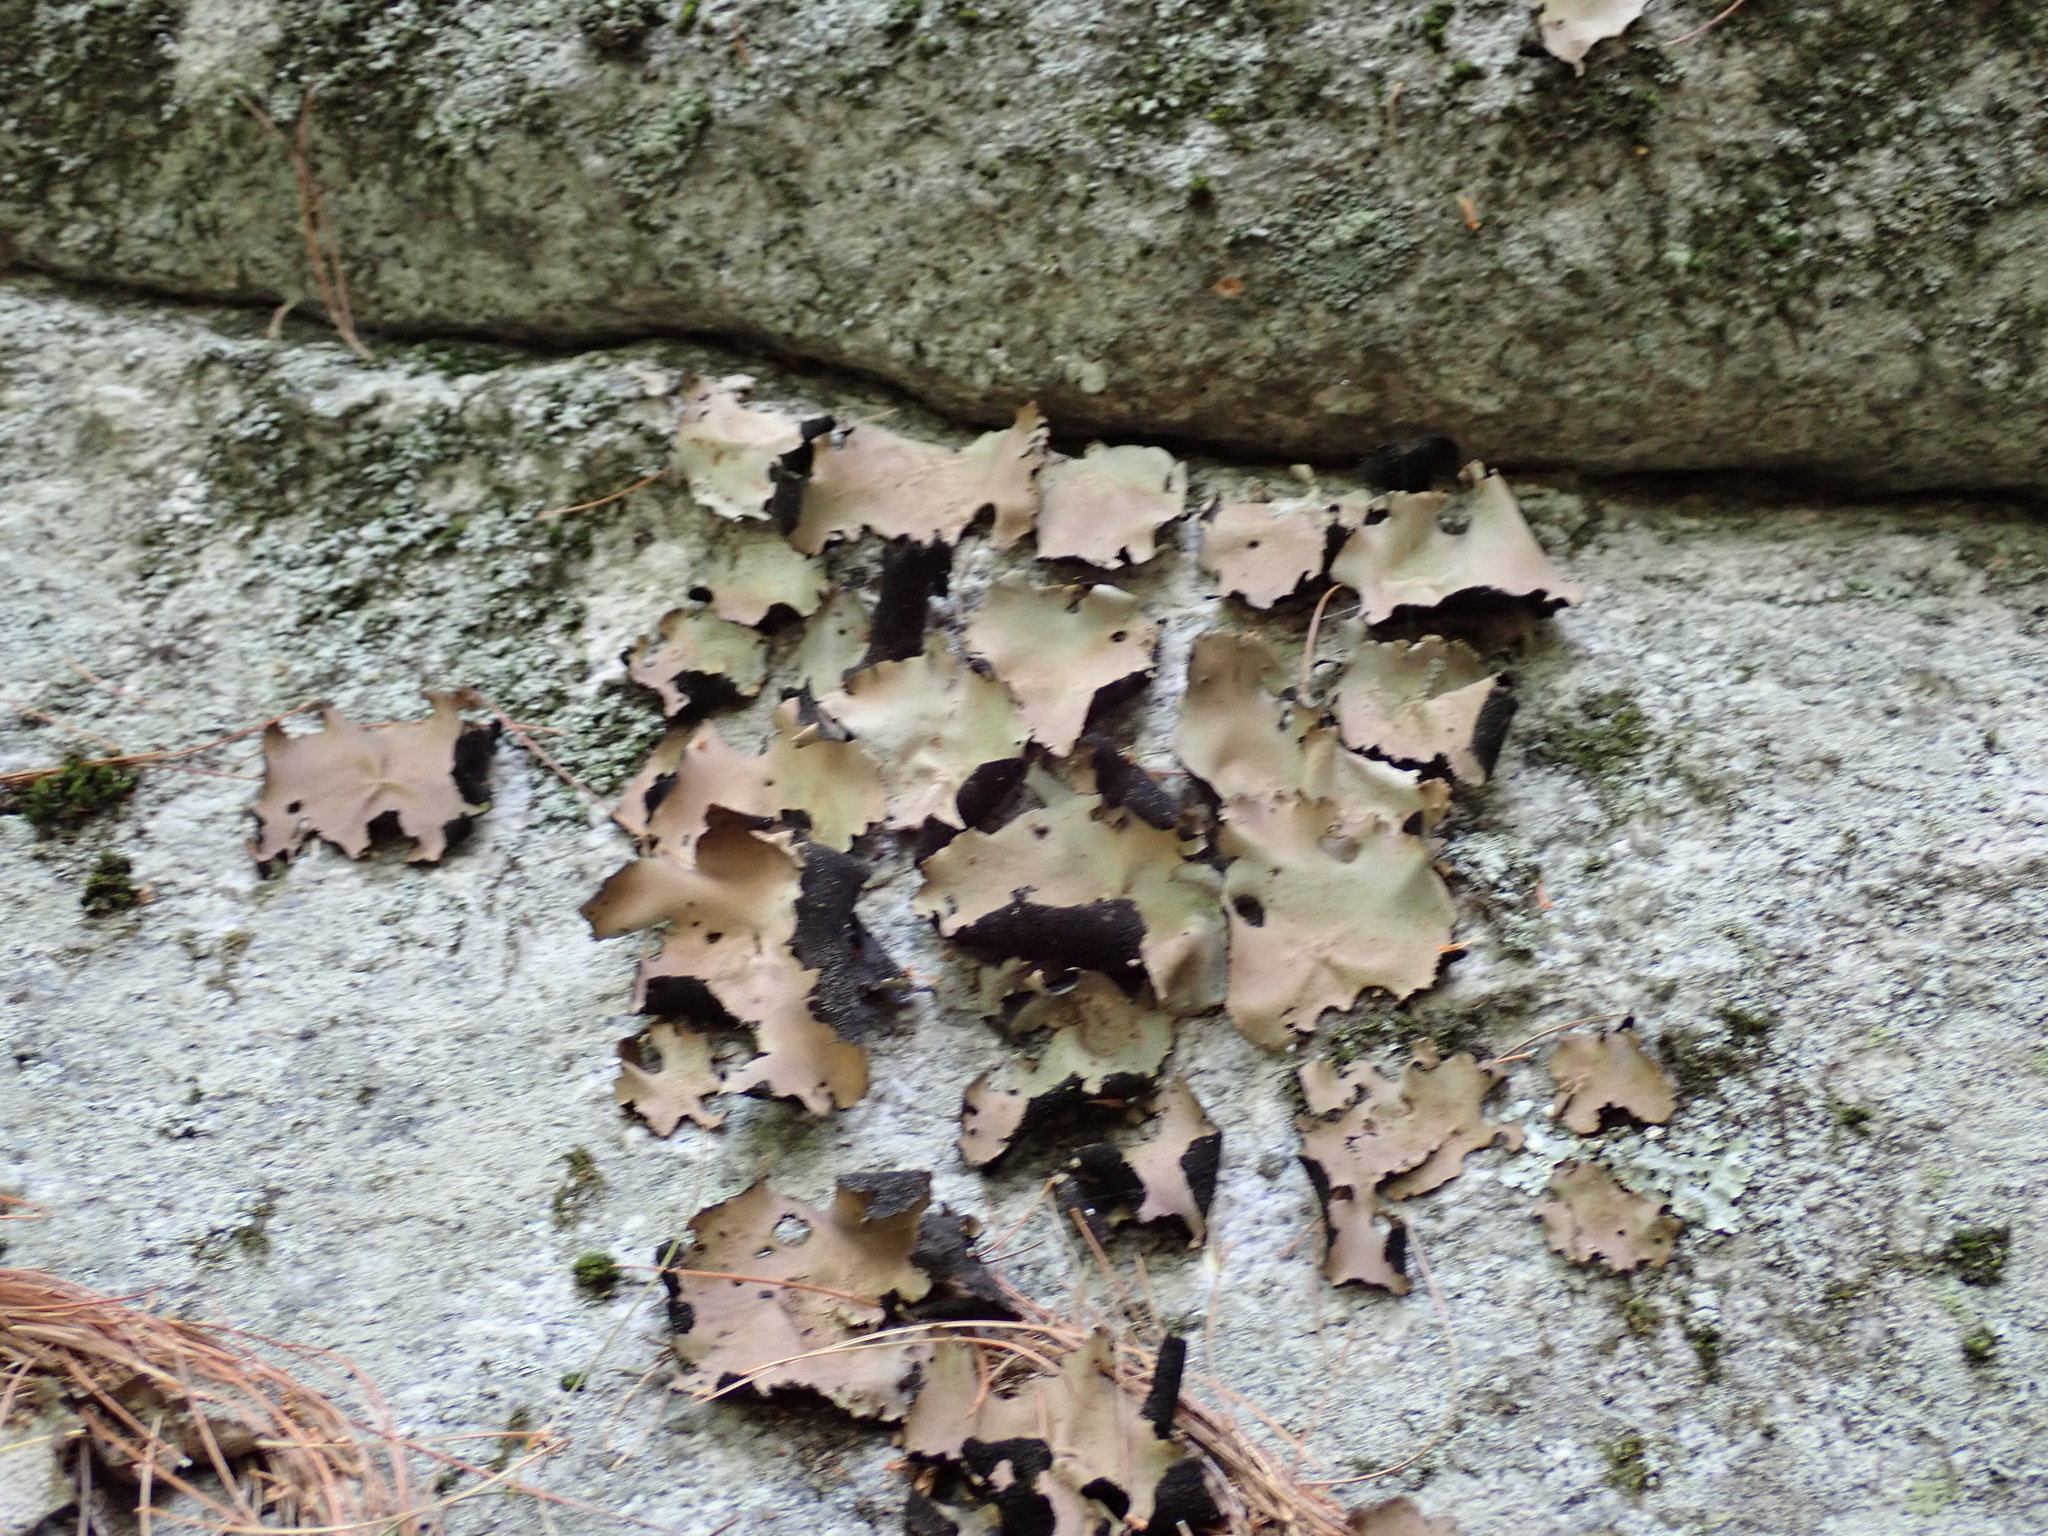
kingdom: Fungi
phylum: Ascomycota
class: Lecanoromycetes
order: Umbilicariales
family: Umbilicariaceae
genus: Umbilicaria
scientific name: Umbilicaria mammulata
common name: Smooth rock tripe
